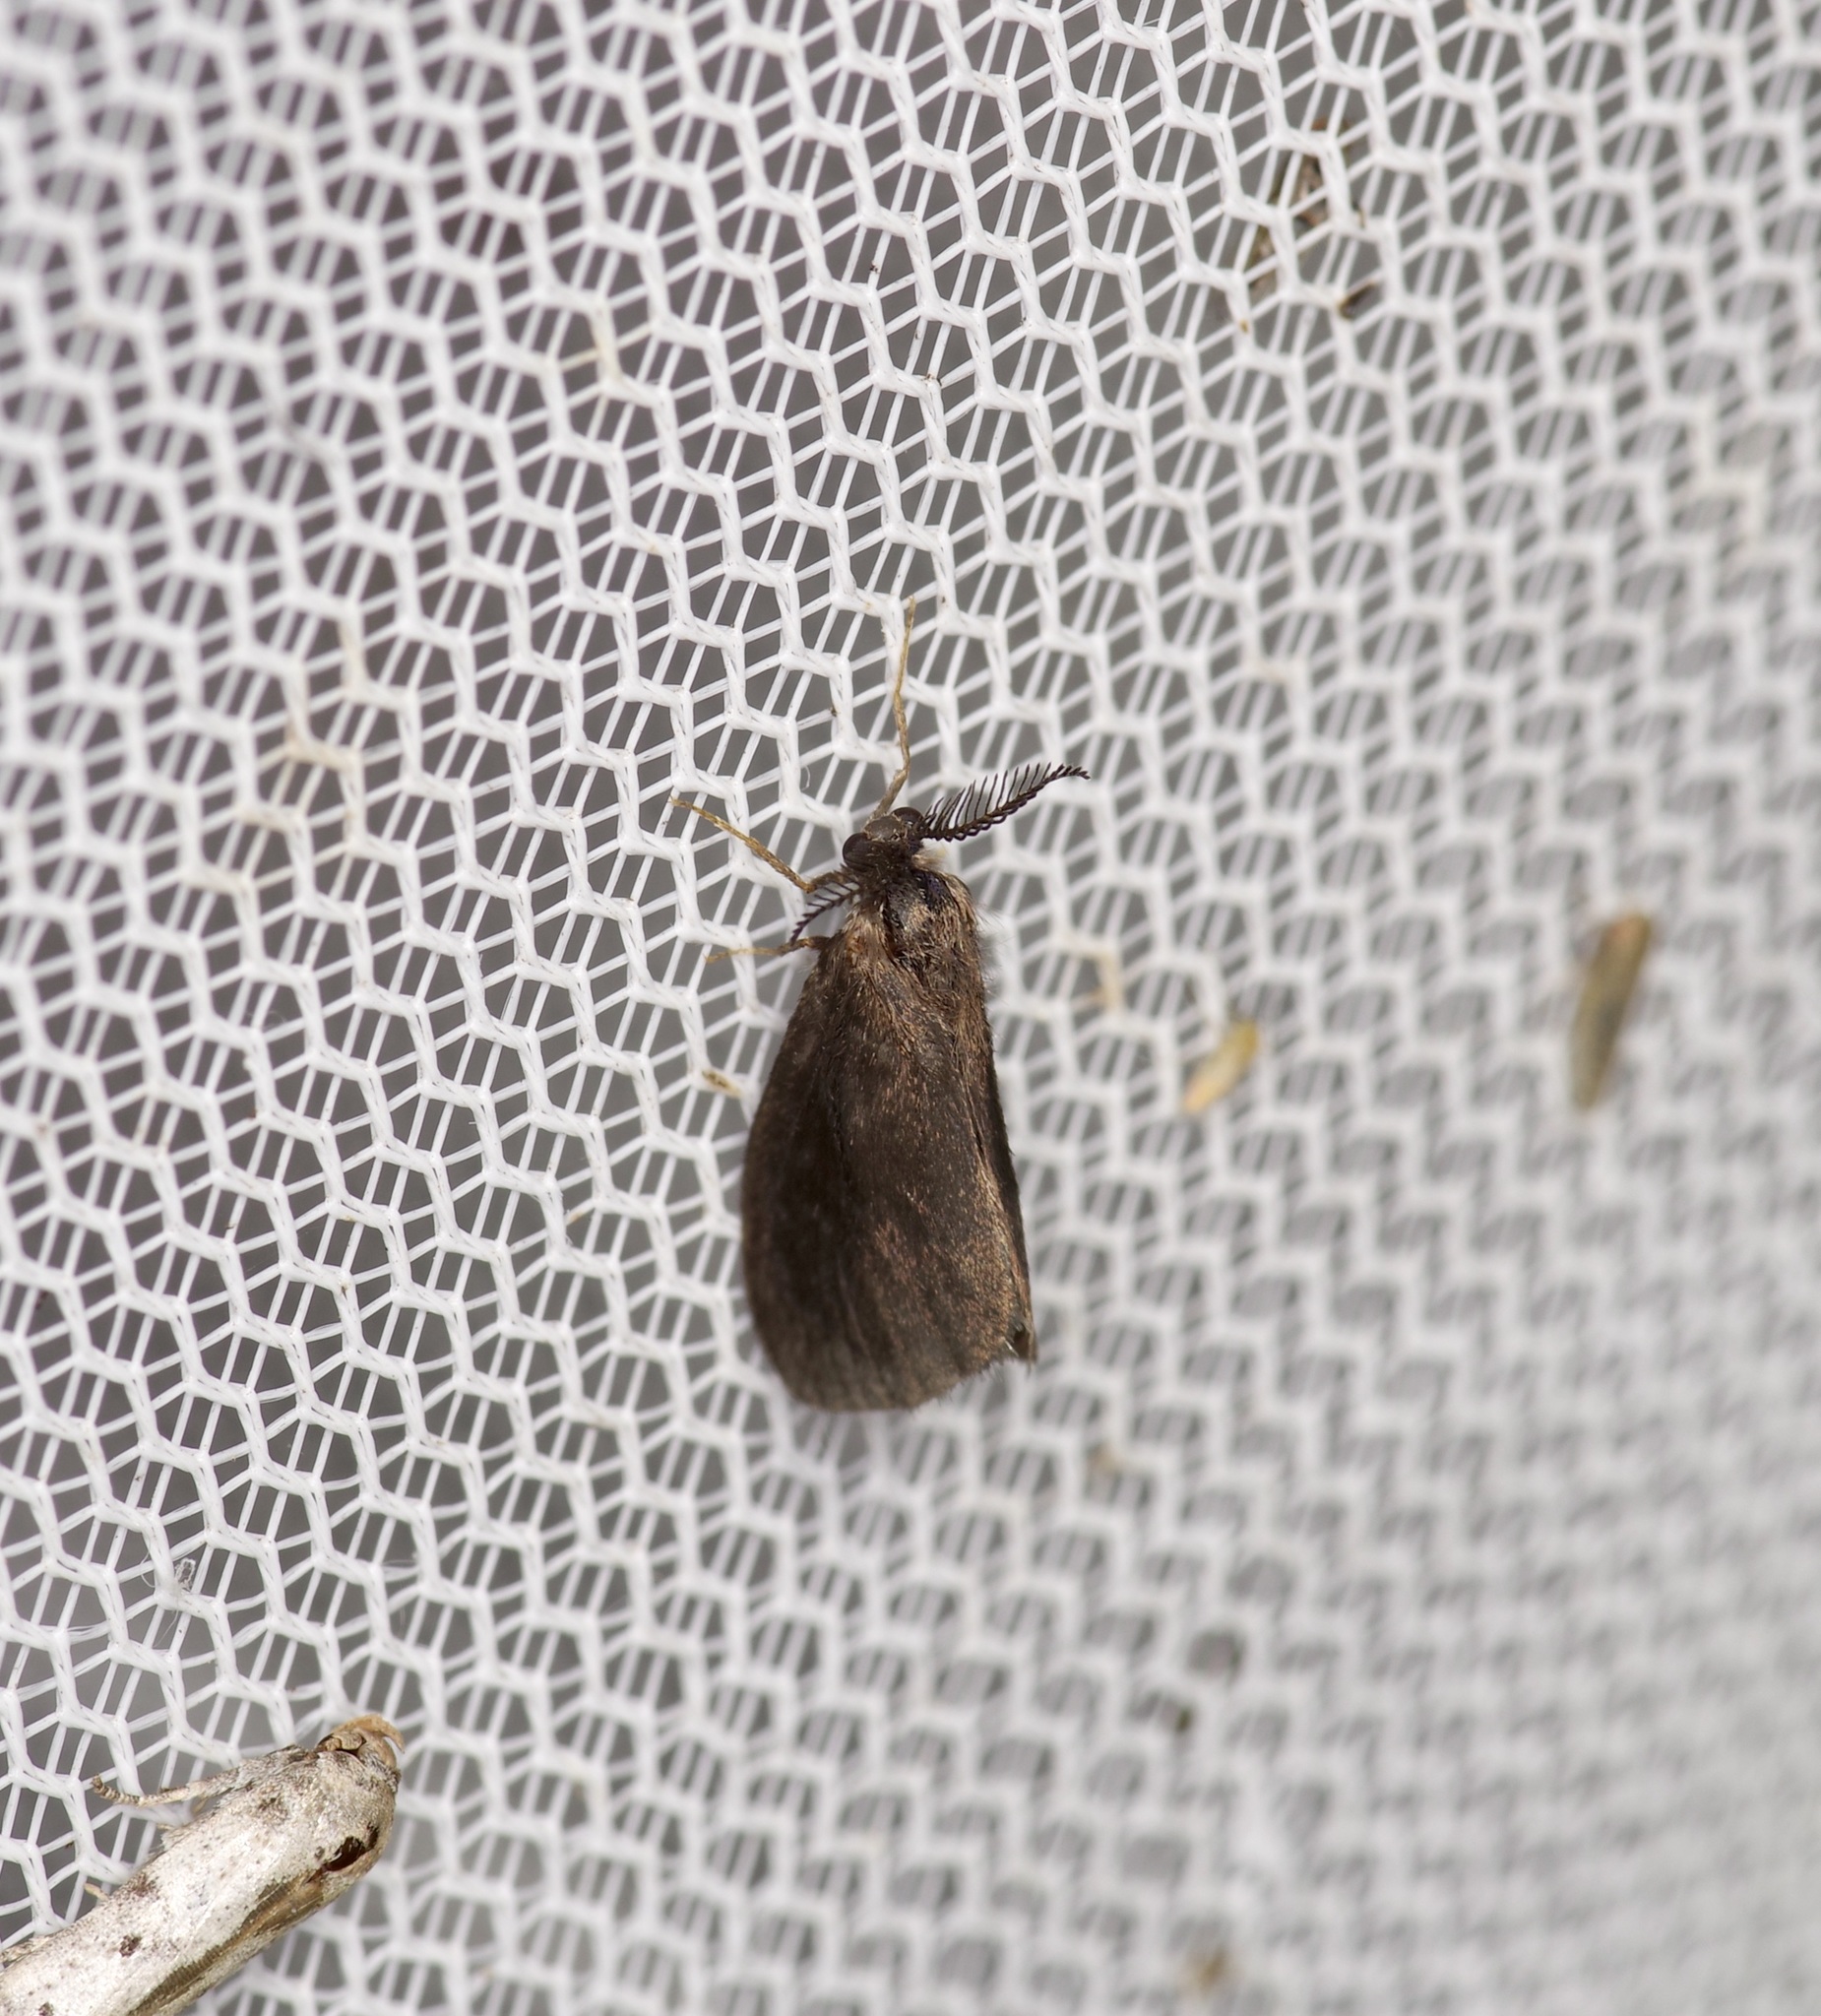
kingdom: Animalia
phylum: Arthropoda
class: Insecta
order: Lepidoptera
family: Psychidae
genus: Cryptothelea
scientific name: Cryptothelea gloverii
